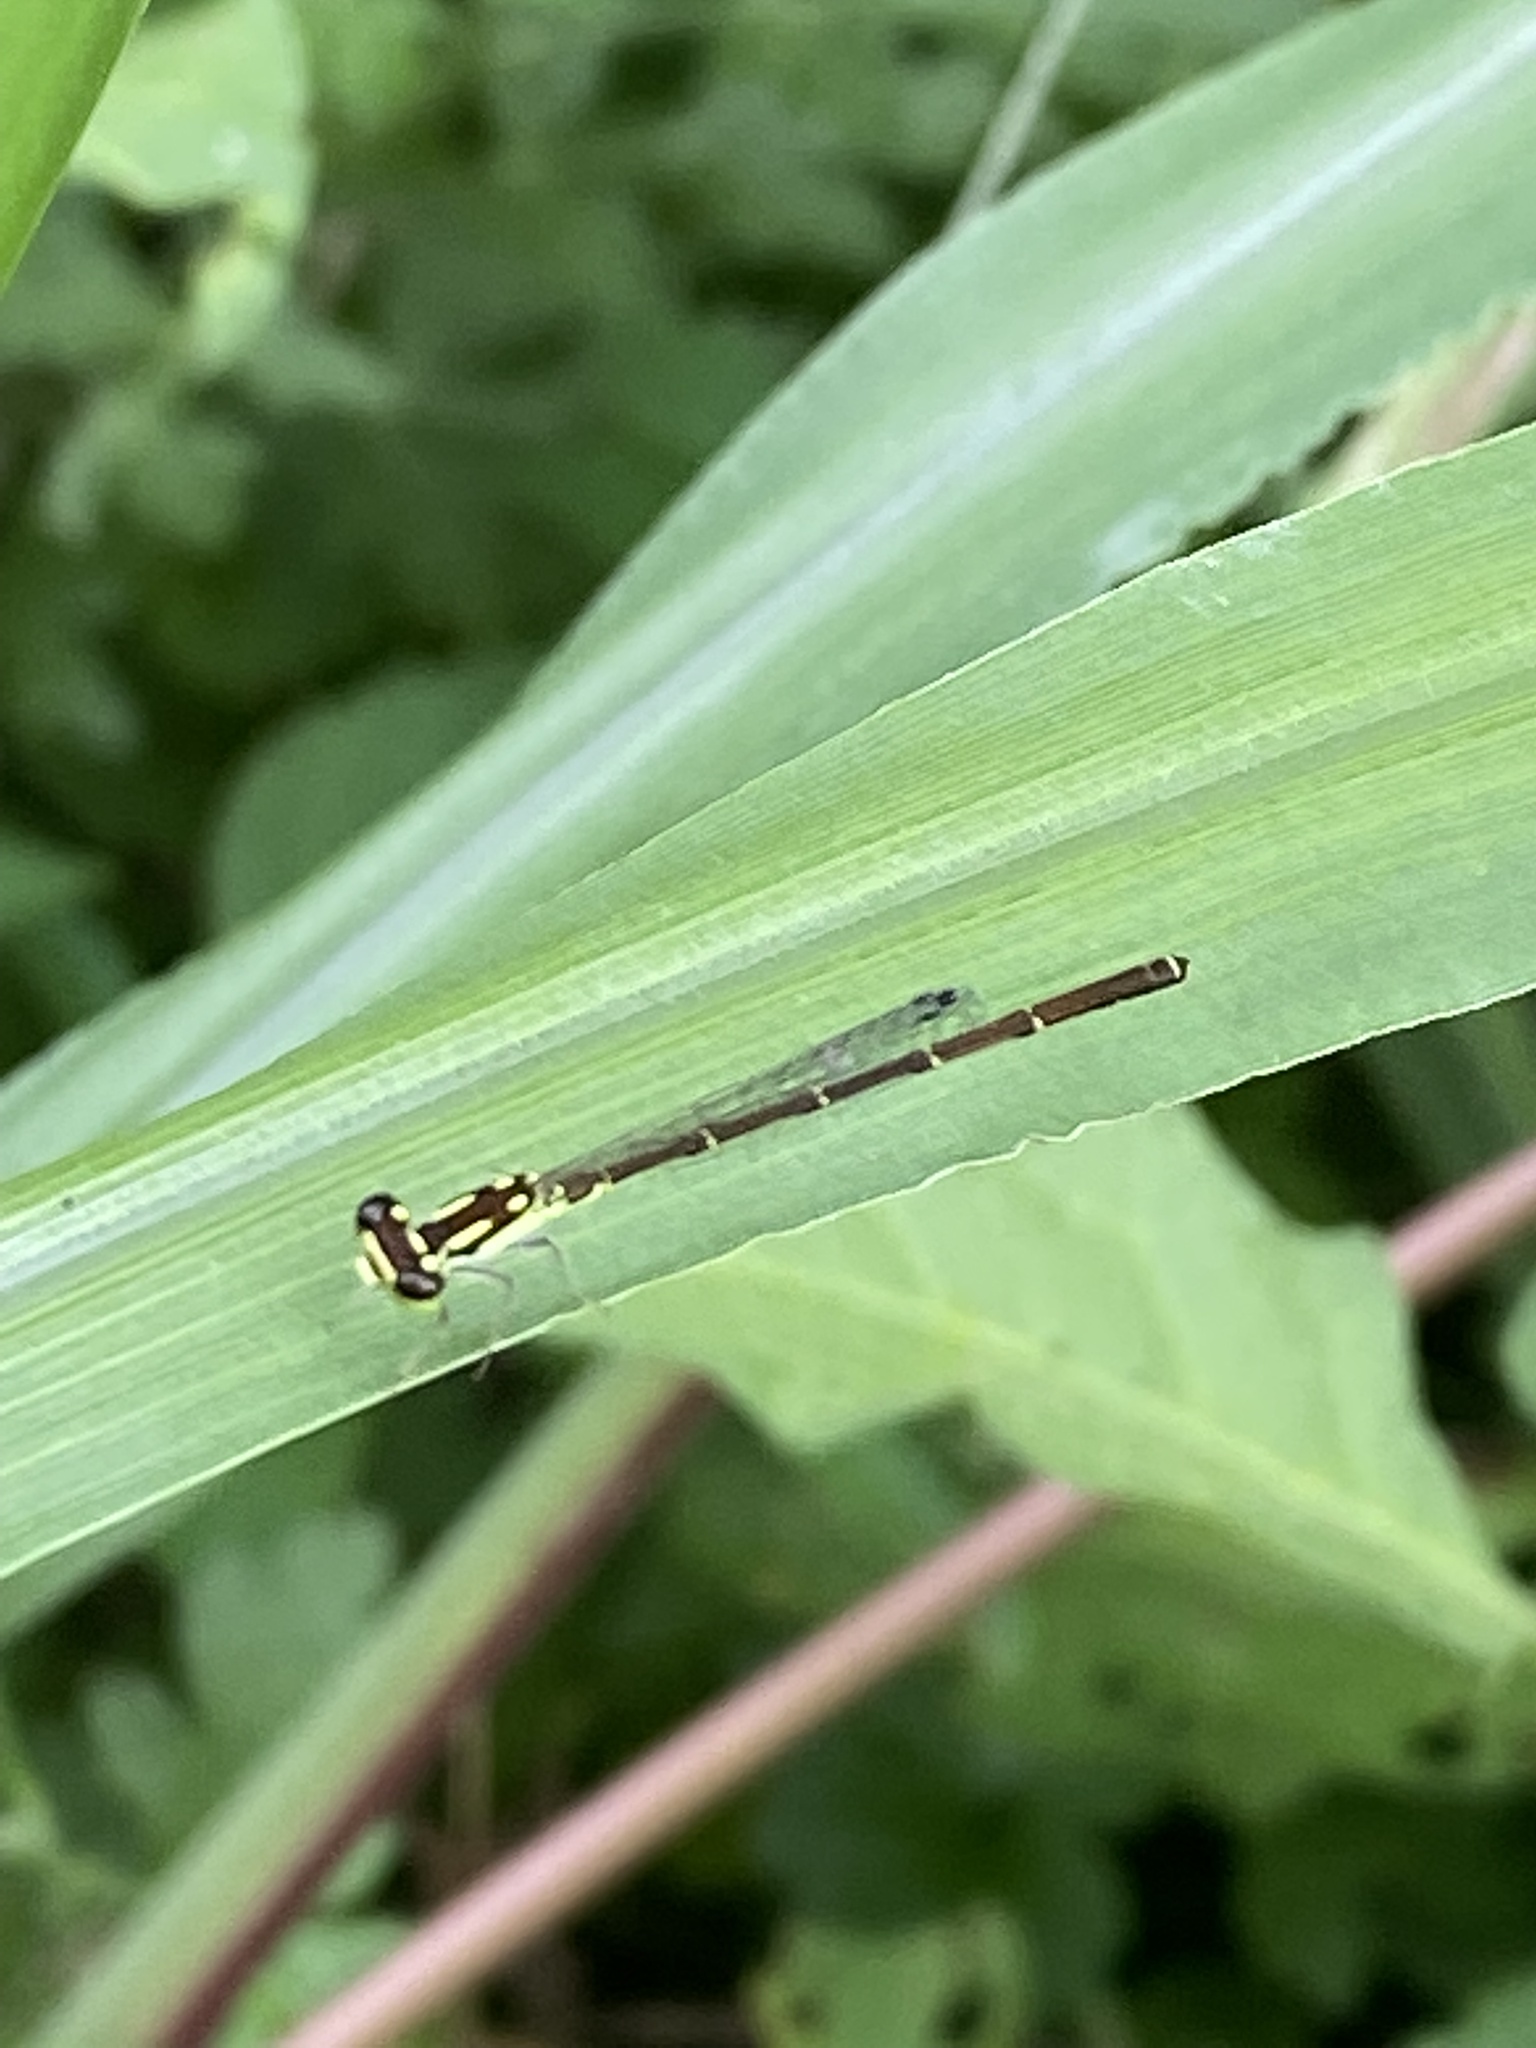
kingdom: Animalia
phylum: Arthropoda
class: Insecta
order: Odonata
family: Coenagrionidae
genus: Ischnura
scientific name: Ischnura posita
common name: Fragile forktail
